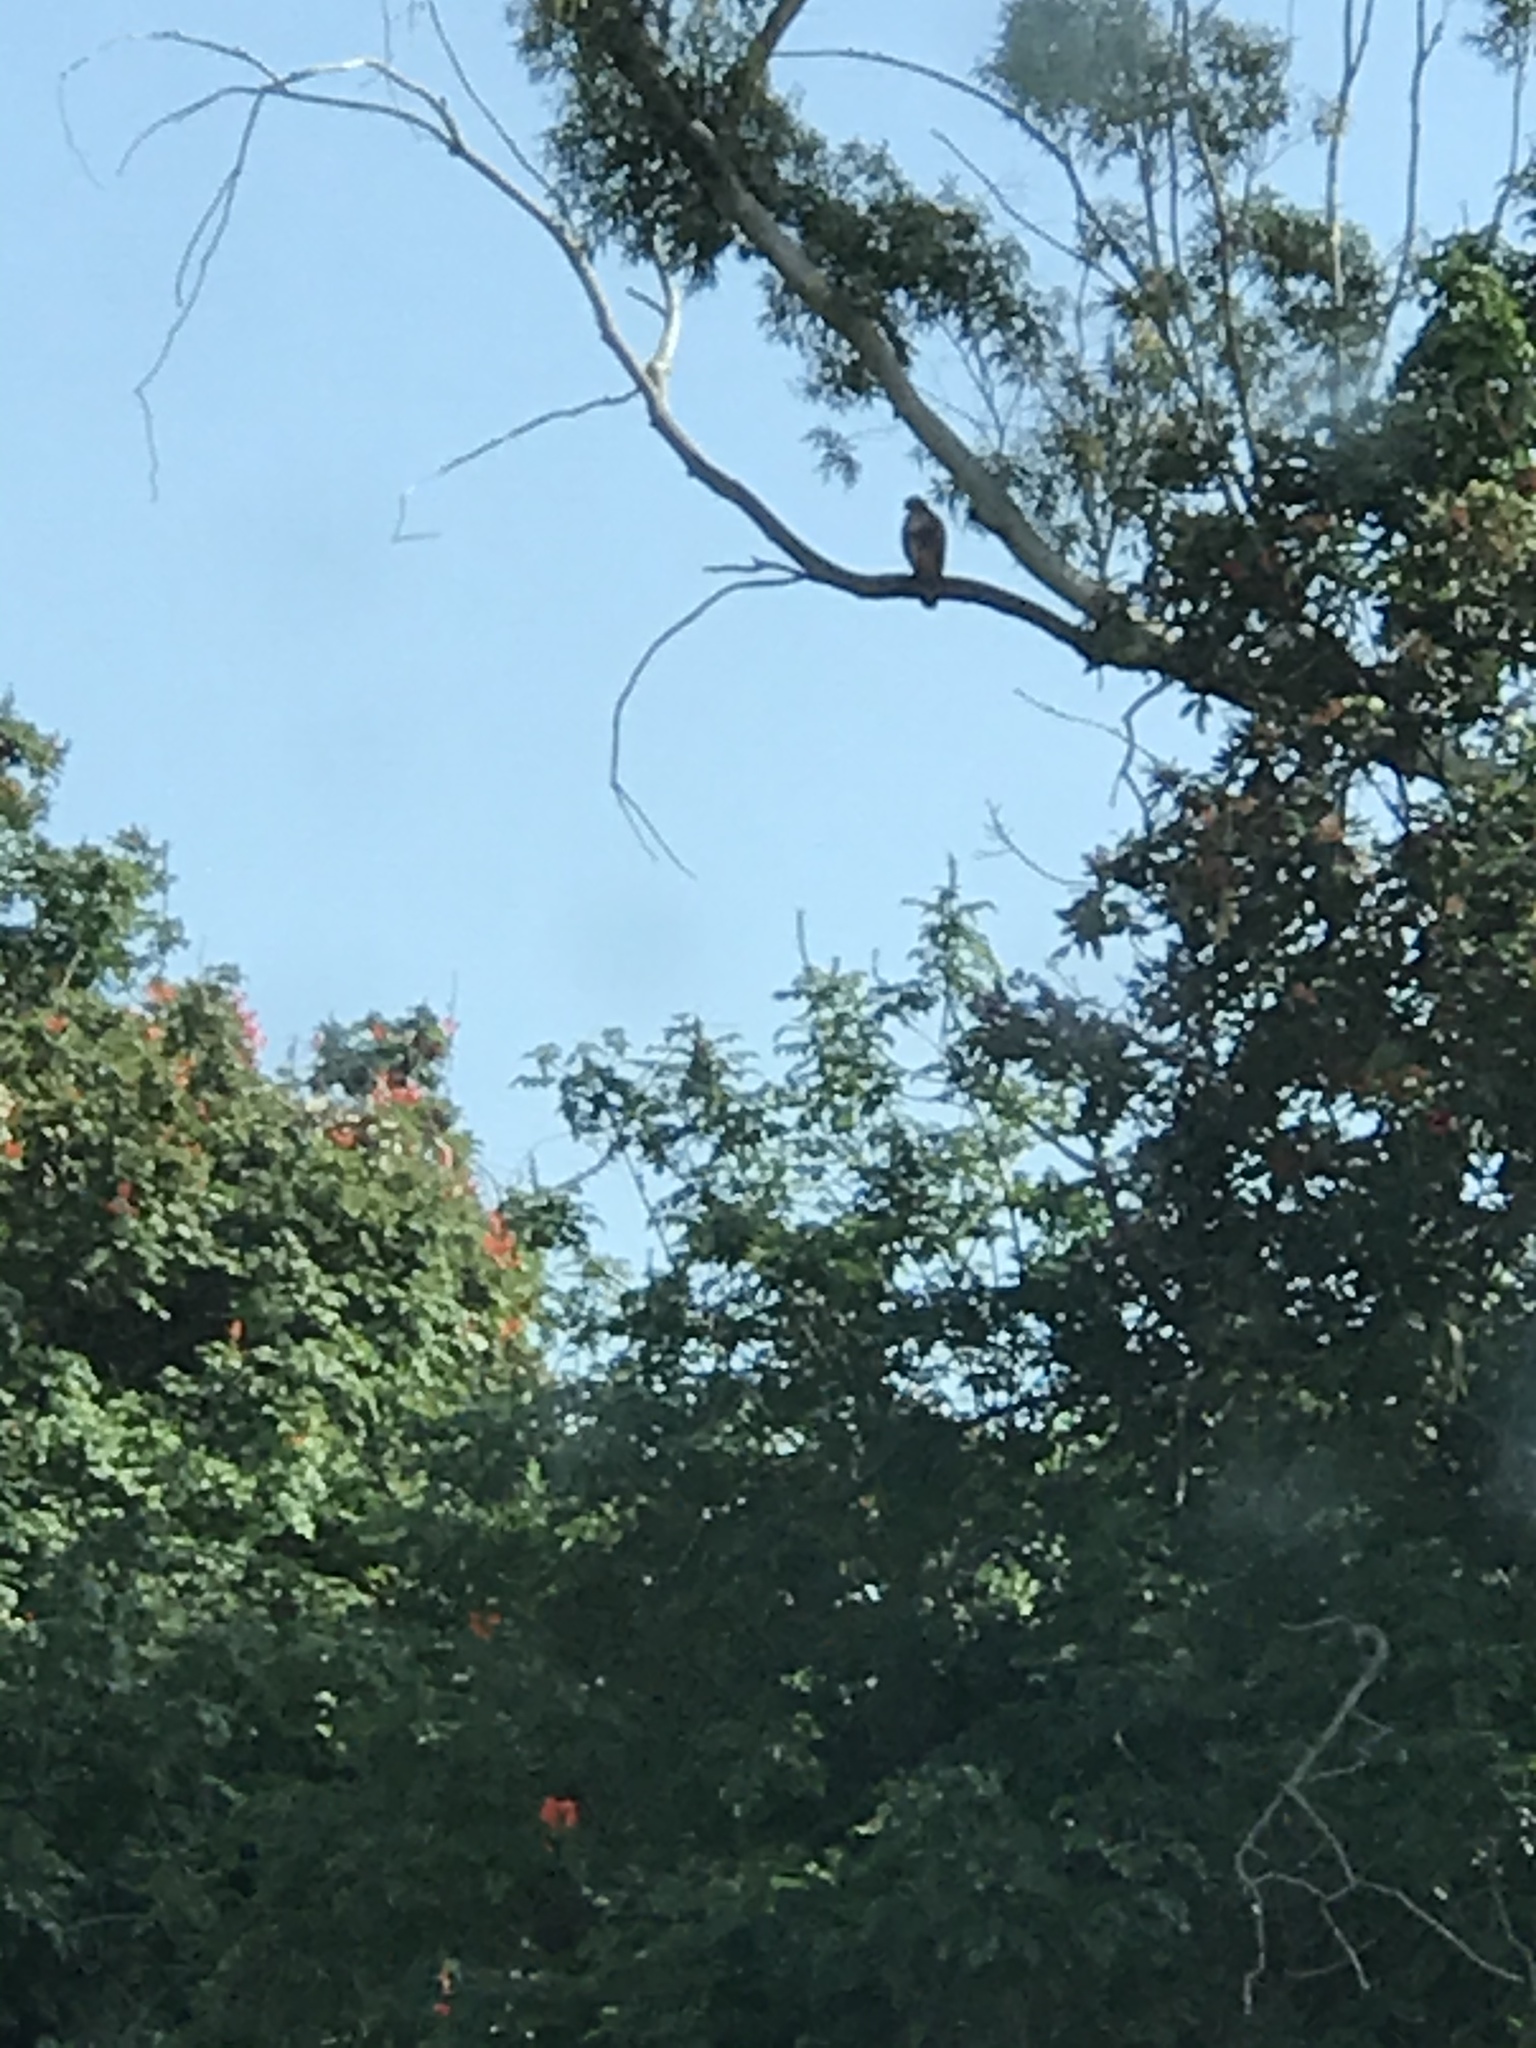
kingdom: Animalia
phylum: Chordata
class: Aves
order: Accipitriformes
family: Accipitridae
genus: Buteo
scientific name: Buteo jamaicensis
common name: Red-tailed hawk
